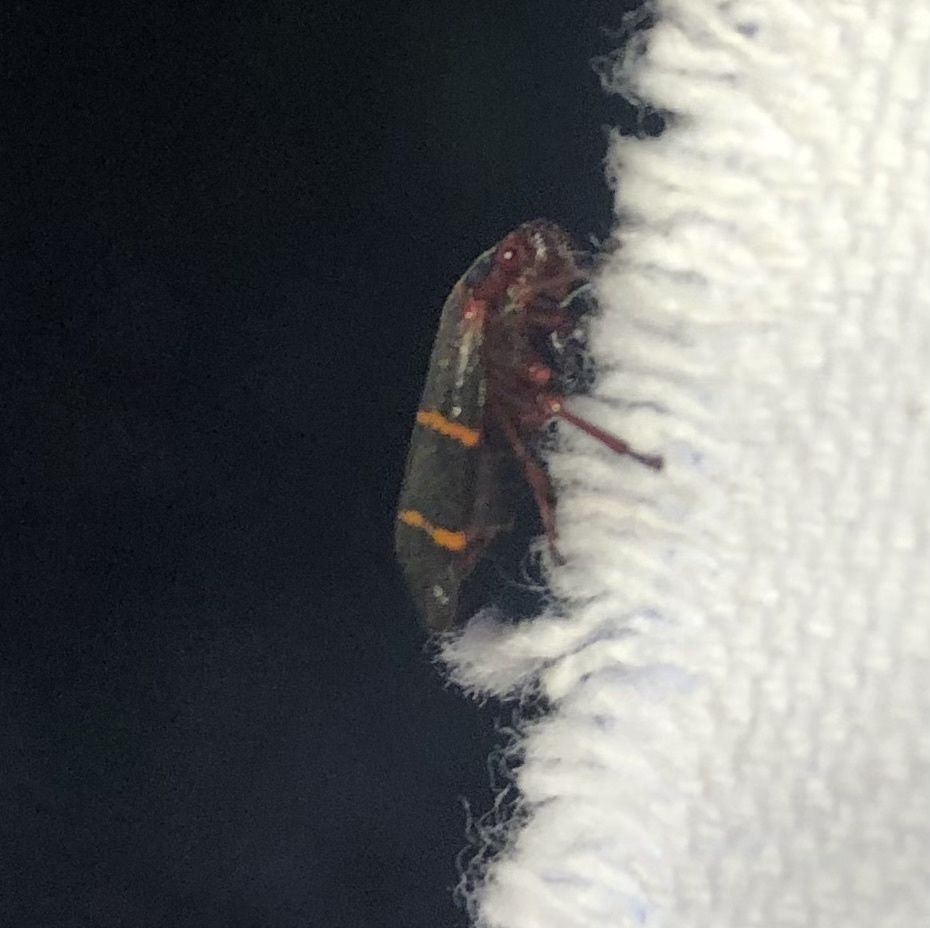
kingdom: Animalia
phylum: Arthropoda
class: Insecta
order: Hemiptera
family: Cercopidae
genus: Prosapia
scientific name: Prosapia bicincta
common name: Twolined spittlebug
